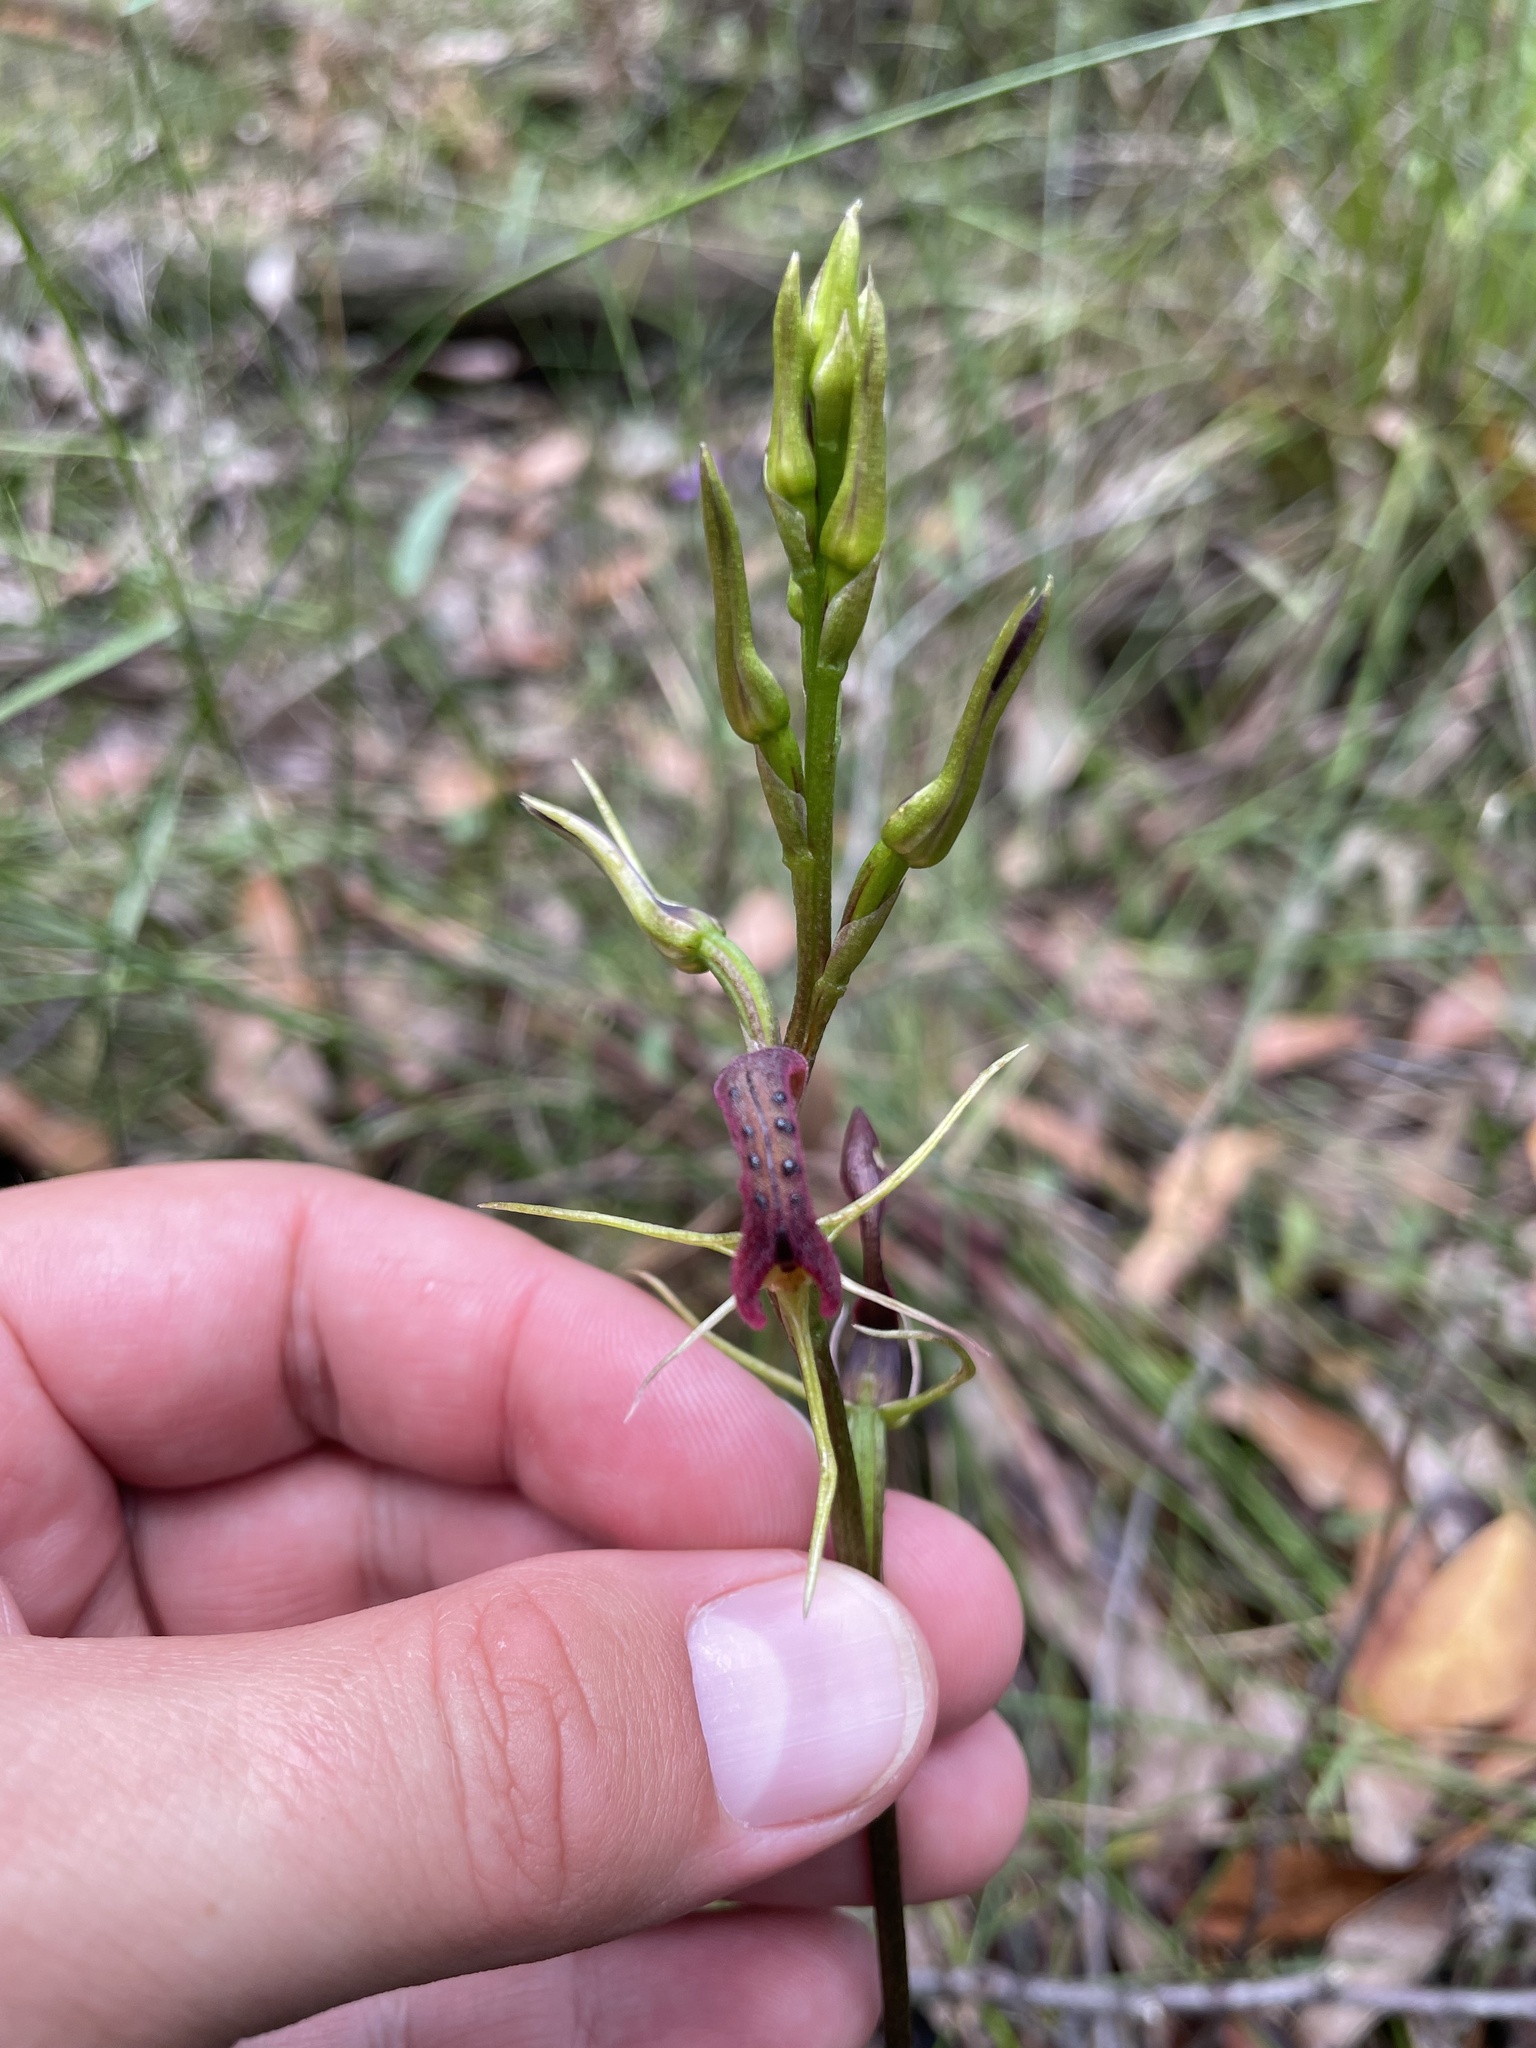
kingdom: Plantae
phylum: Tracheophyta
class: Liliopsida
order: Asparagales
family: Orchidaceae
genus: Cryptostylis
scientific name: Cryptostylis leptochila
